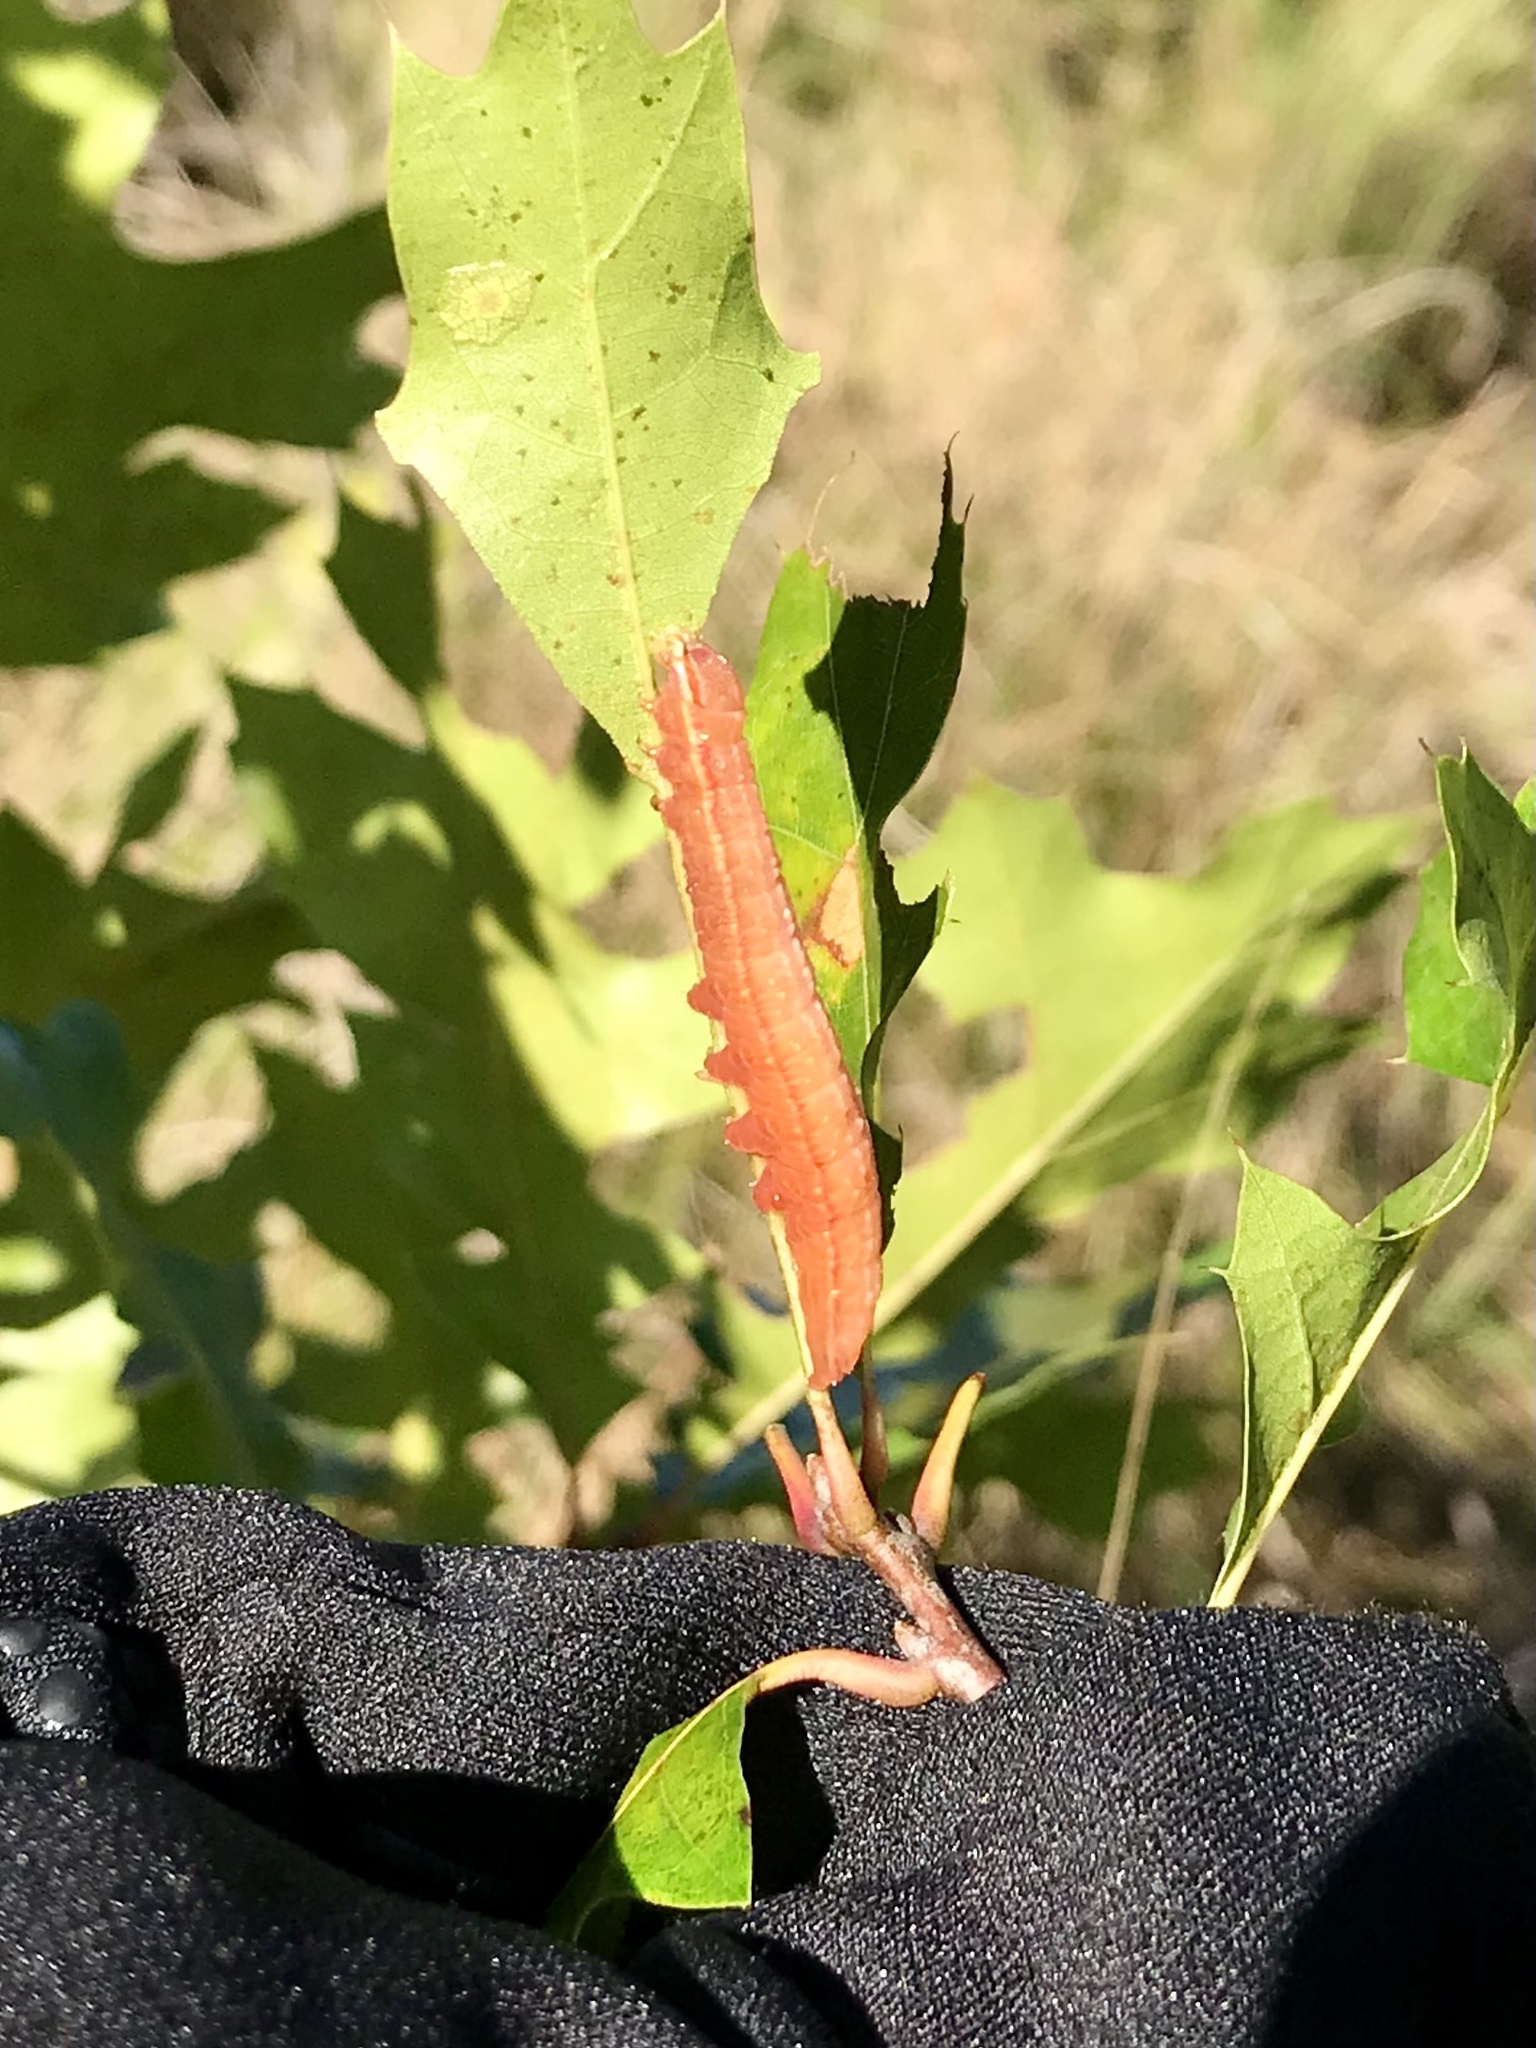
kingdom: Animalia
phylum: Arthropoda
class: Insecta
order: Lepidoptera
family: Notodontidae
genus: Peridea
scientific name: Peridea angulosa
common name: Angulose prominent
